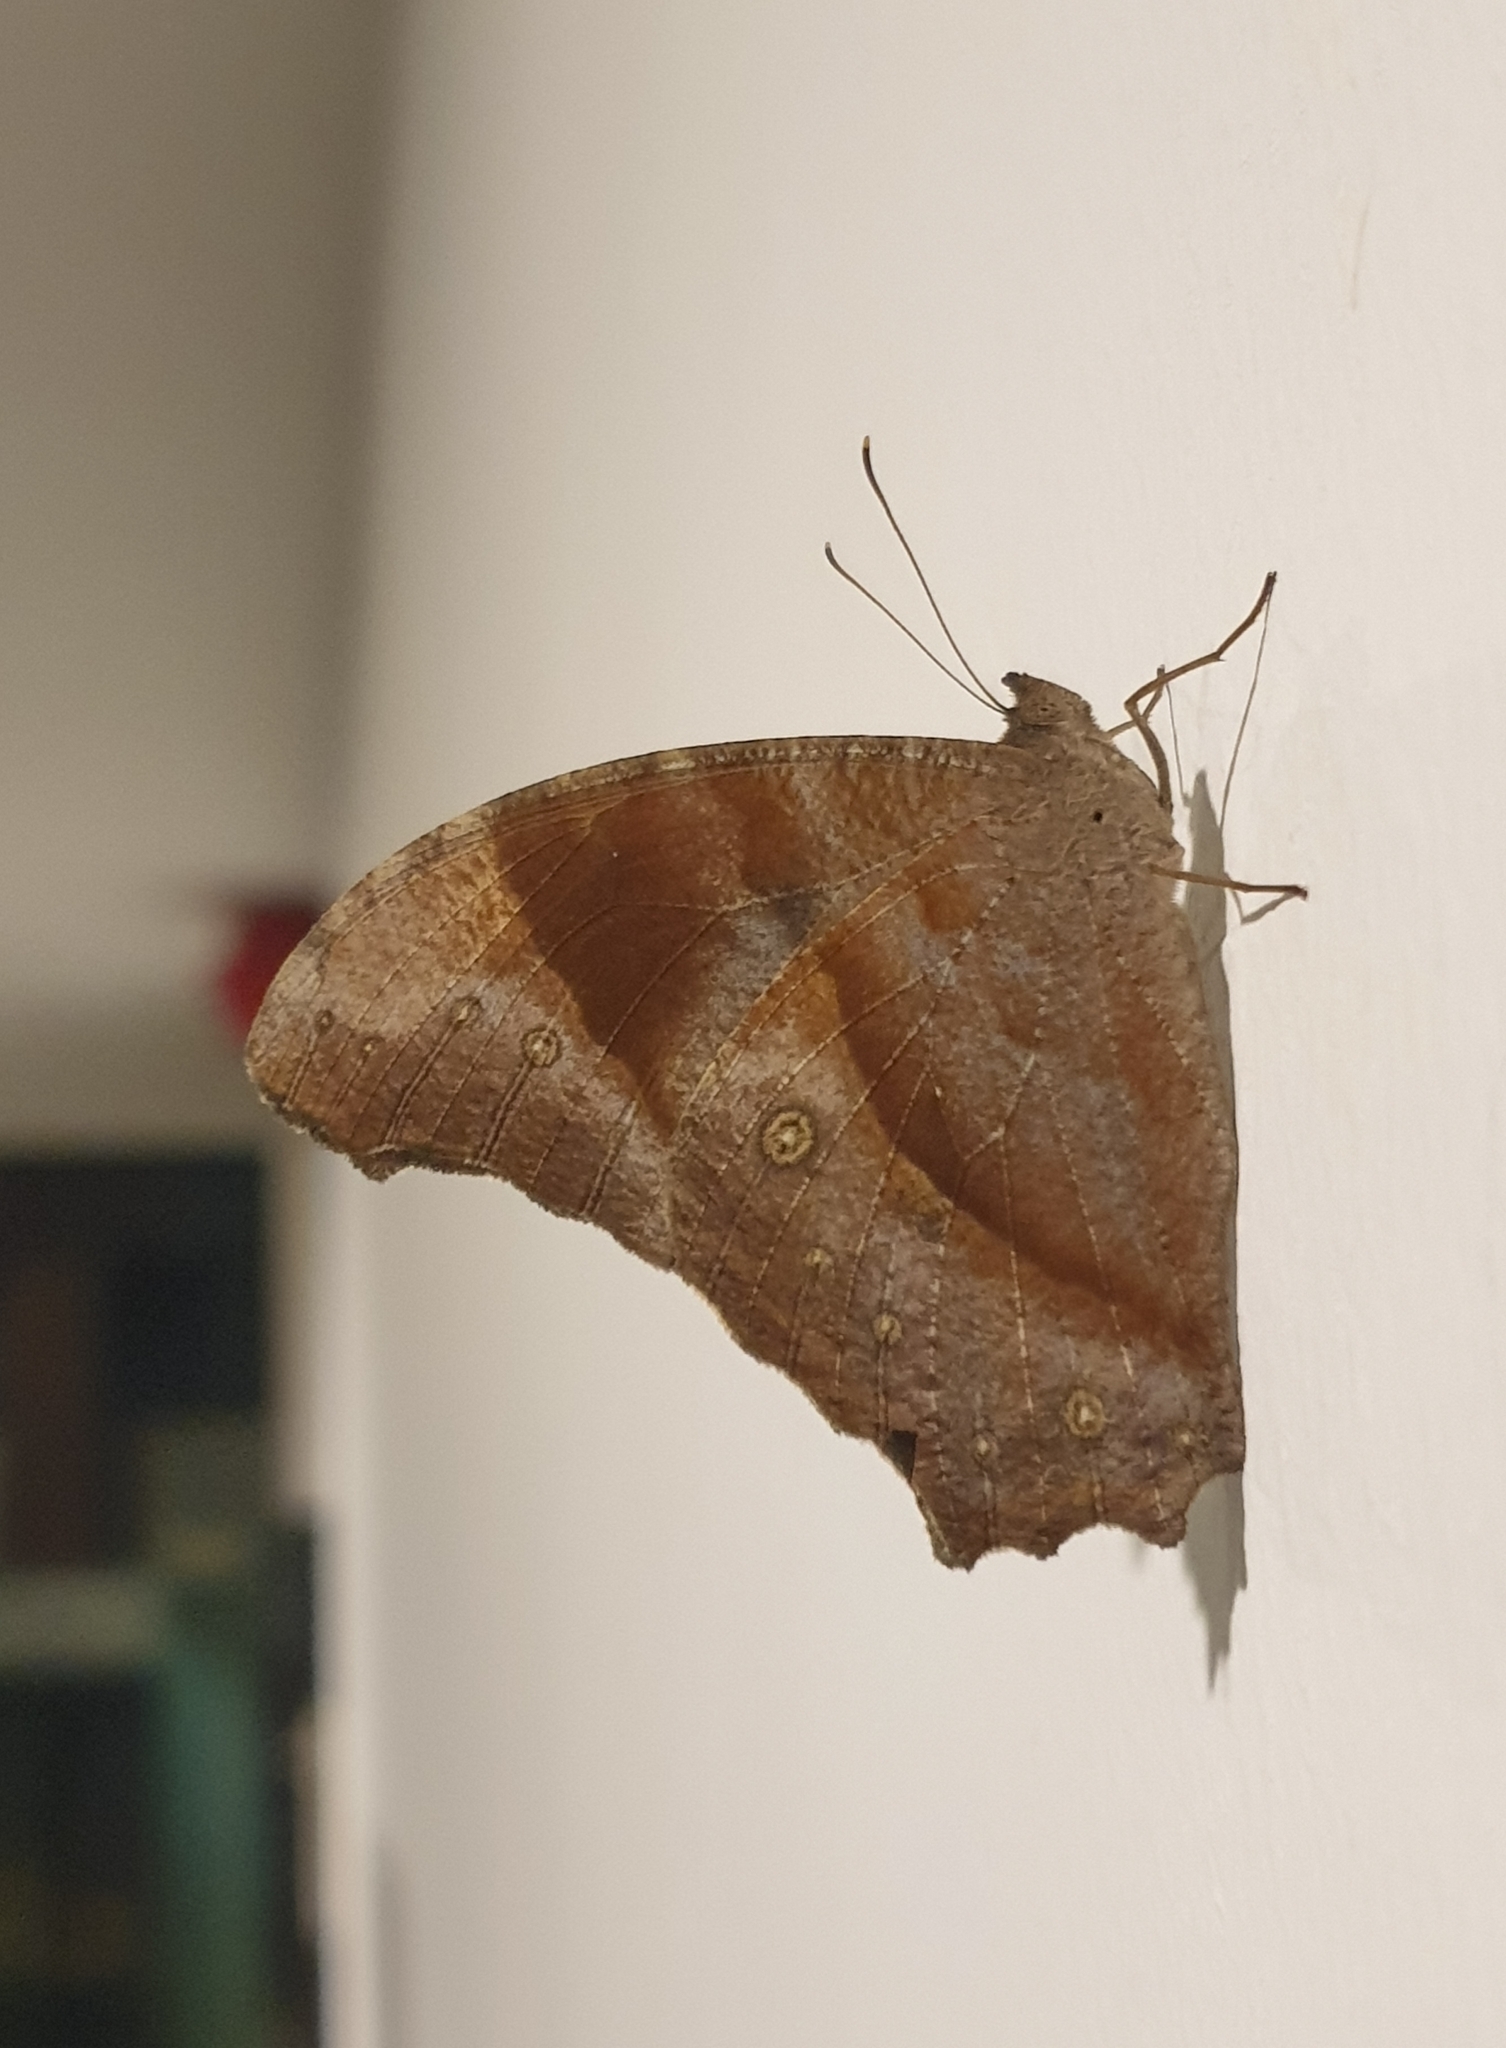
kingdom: Animalia
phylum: Arthropoda
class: Insecta
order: Lepidoptera
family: Nymphalidae
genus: Melanitis
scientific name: Melanitis leda
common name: Twilight brown
